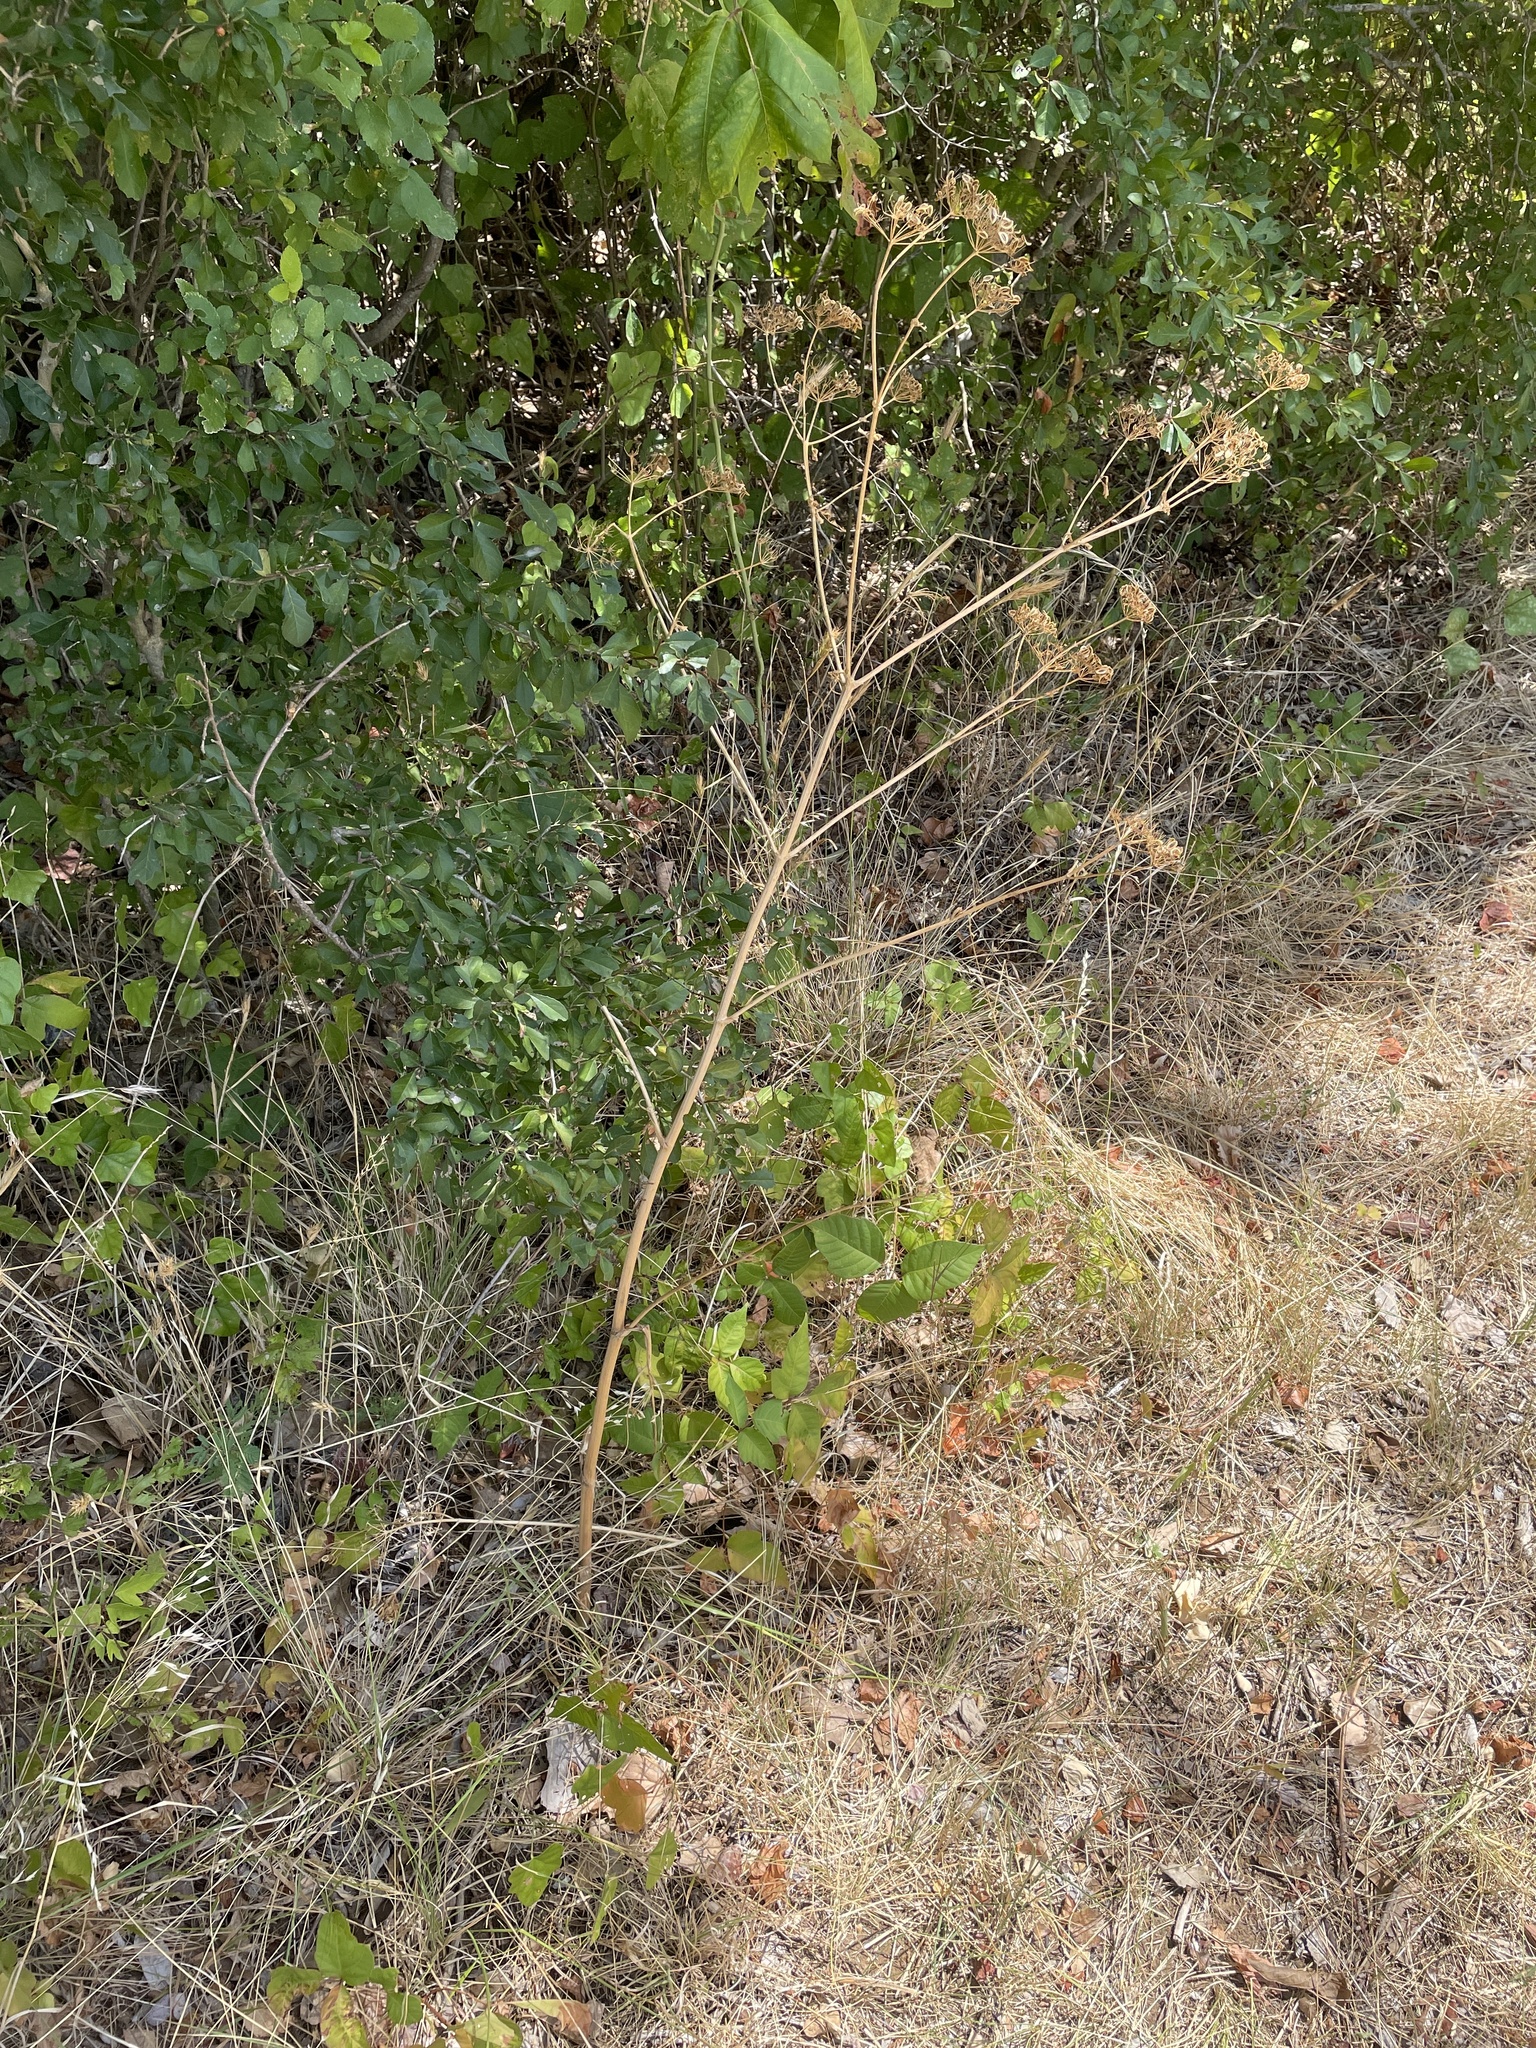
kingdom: Plantae
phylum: Tracheophyta
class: Magnoliopsida
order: Apiales
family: Apiaceae
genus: Polytaenia
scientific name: Polytaenia texana
